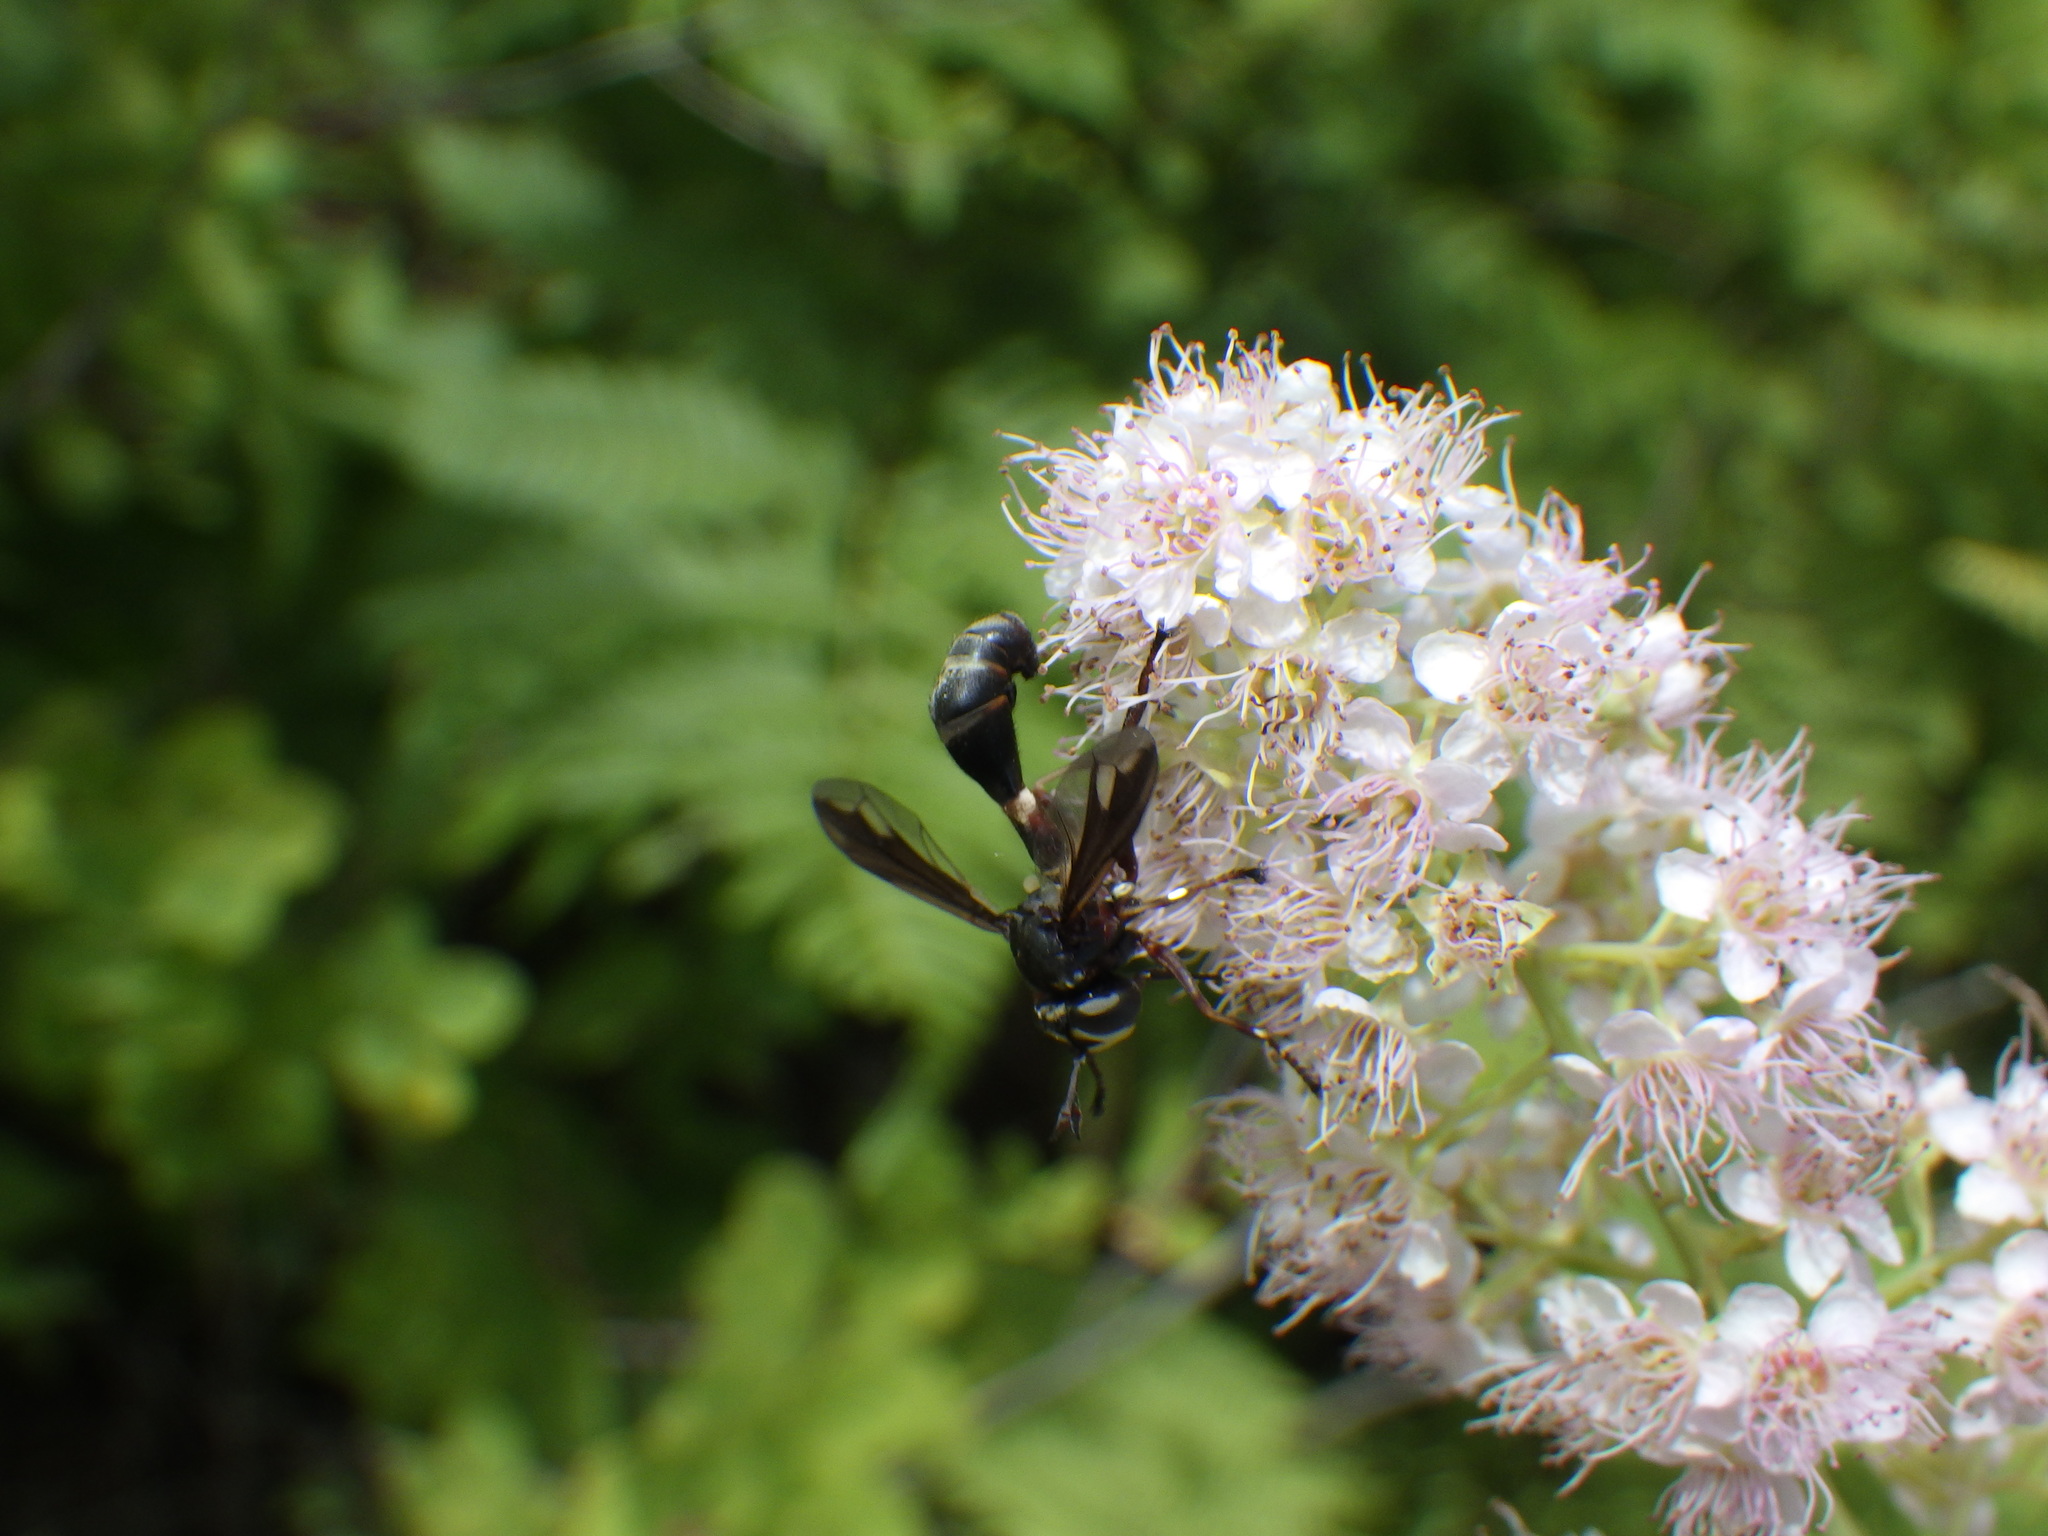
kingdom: Animalia
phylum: Arthropoda
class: Insecta
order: Diptera
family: Conopidae
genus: Physocephala
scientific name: Physocephala furcillata
